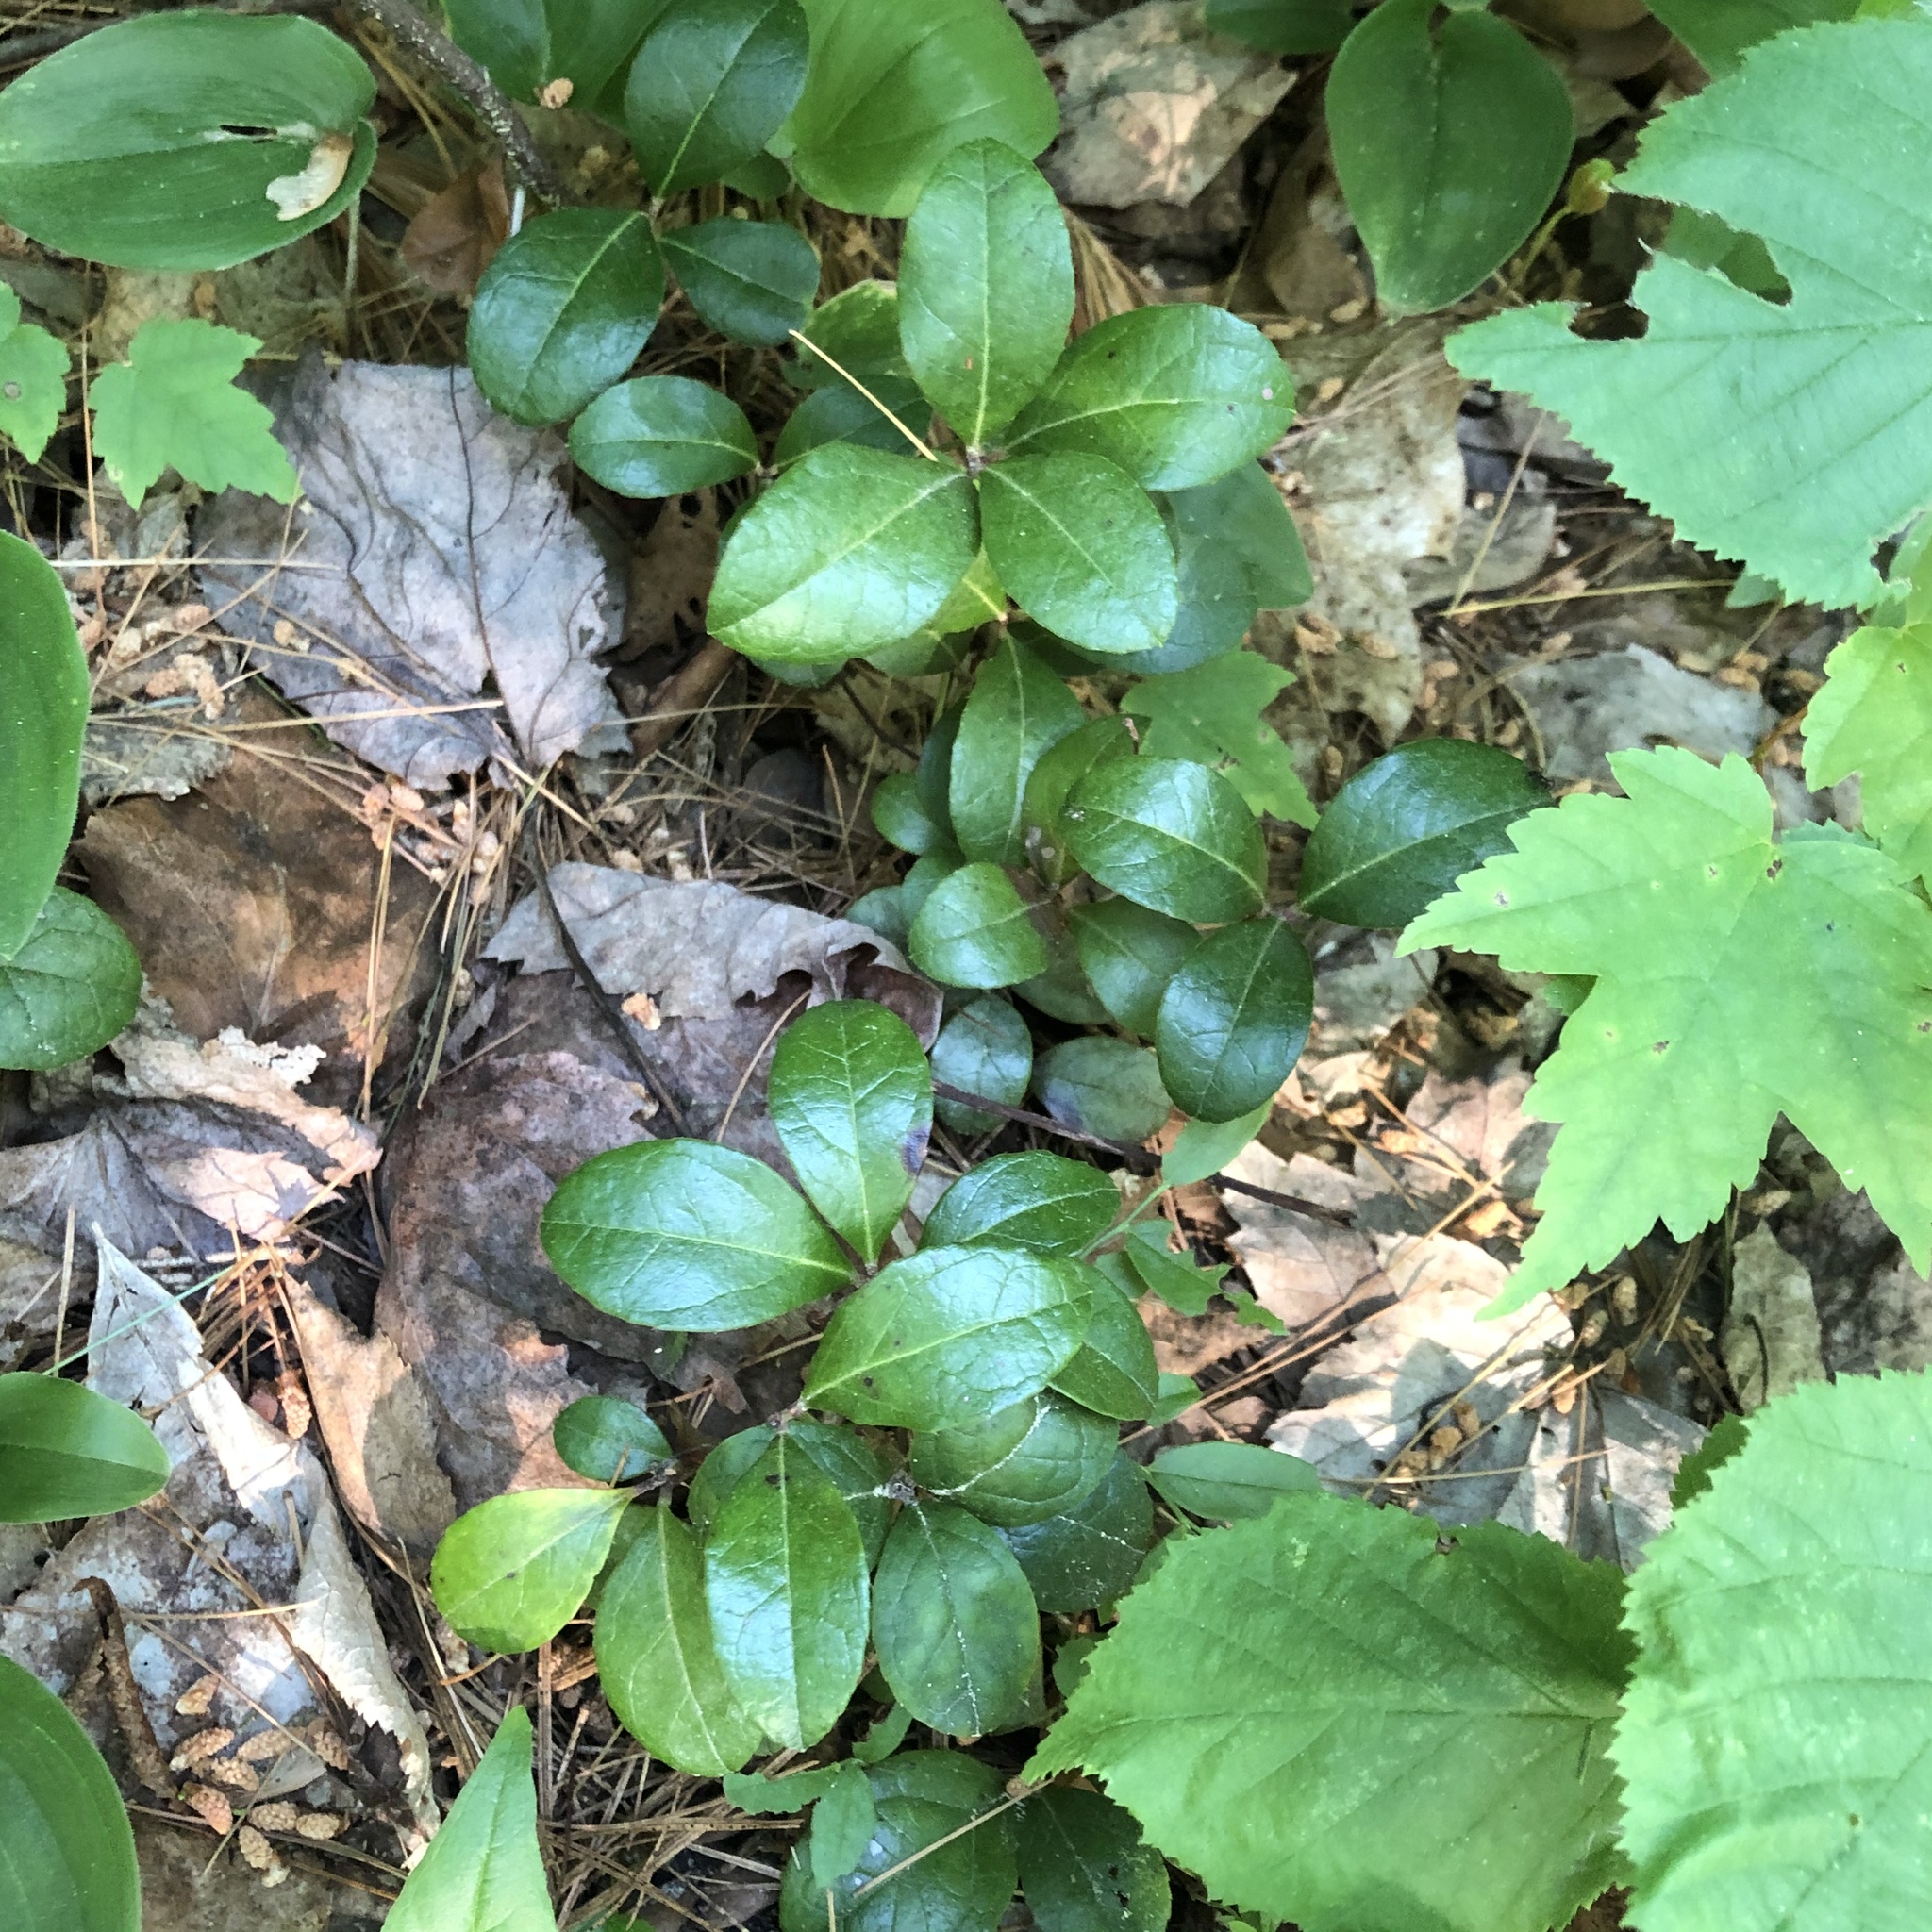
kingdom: Plantae
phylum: Tracheophyta
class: Magnoliopsida
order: Ericales
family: Ericaceae
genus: Gaultheria
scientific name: Gaultheria procumbens
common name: Checkerberry
